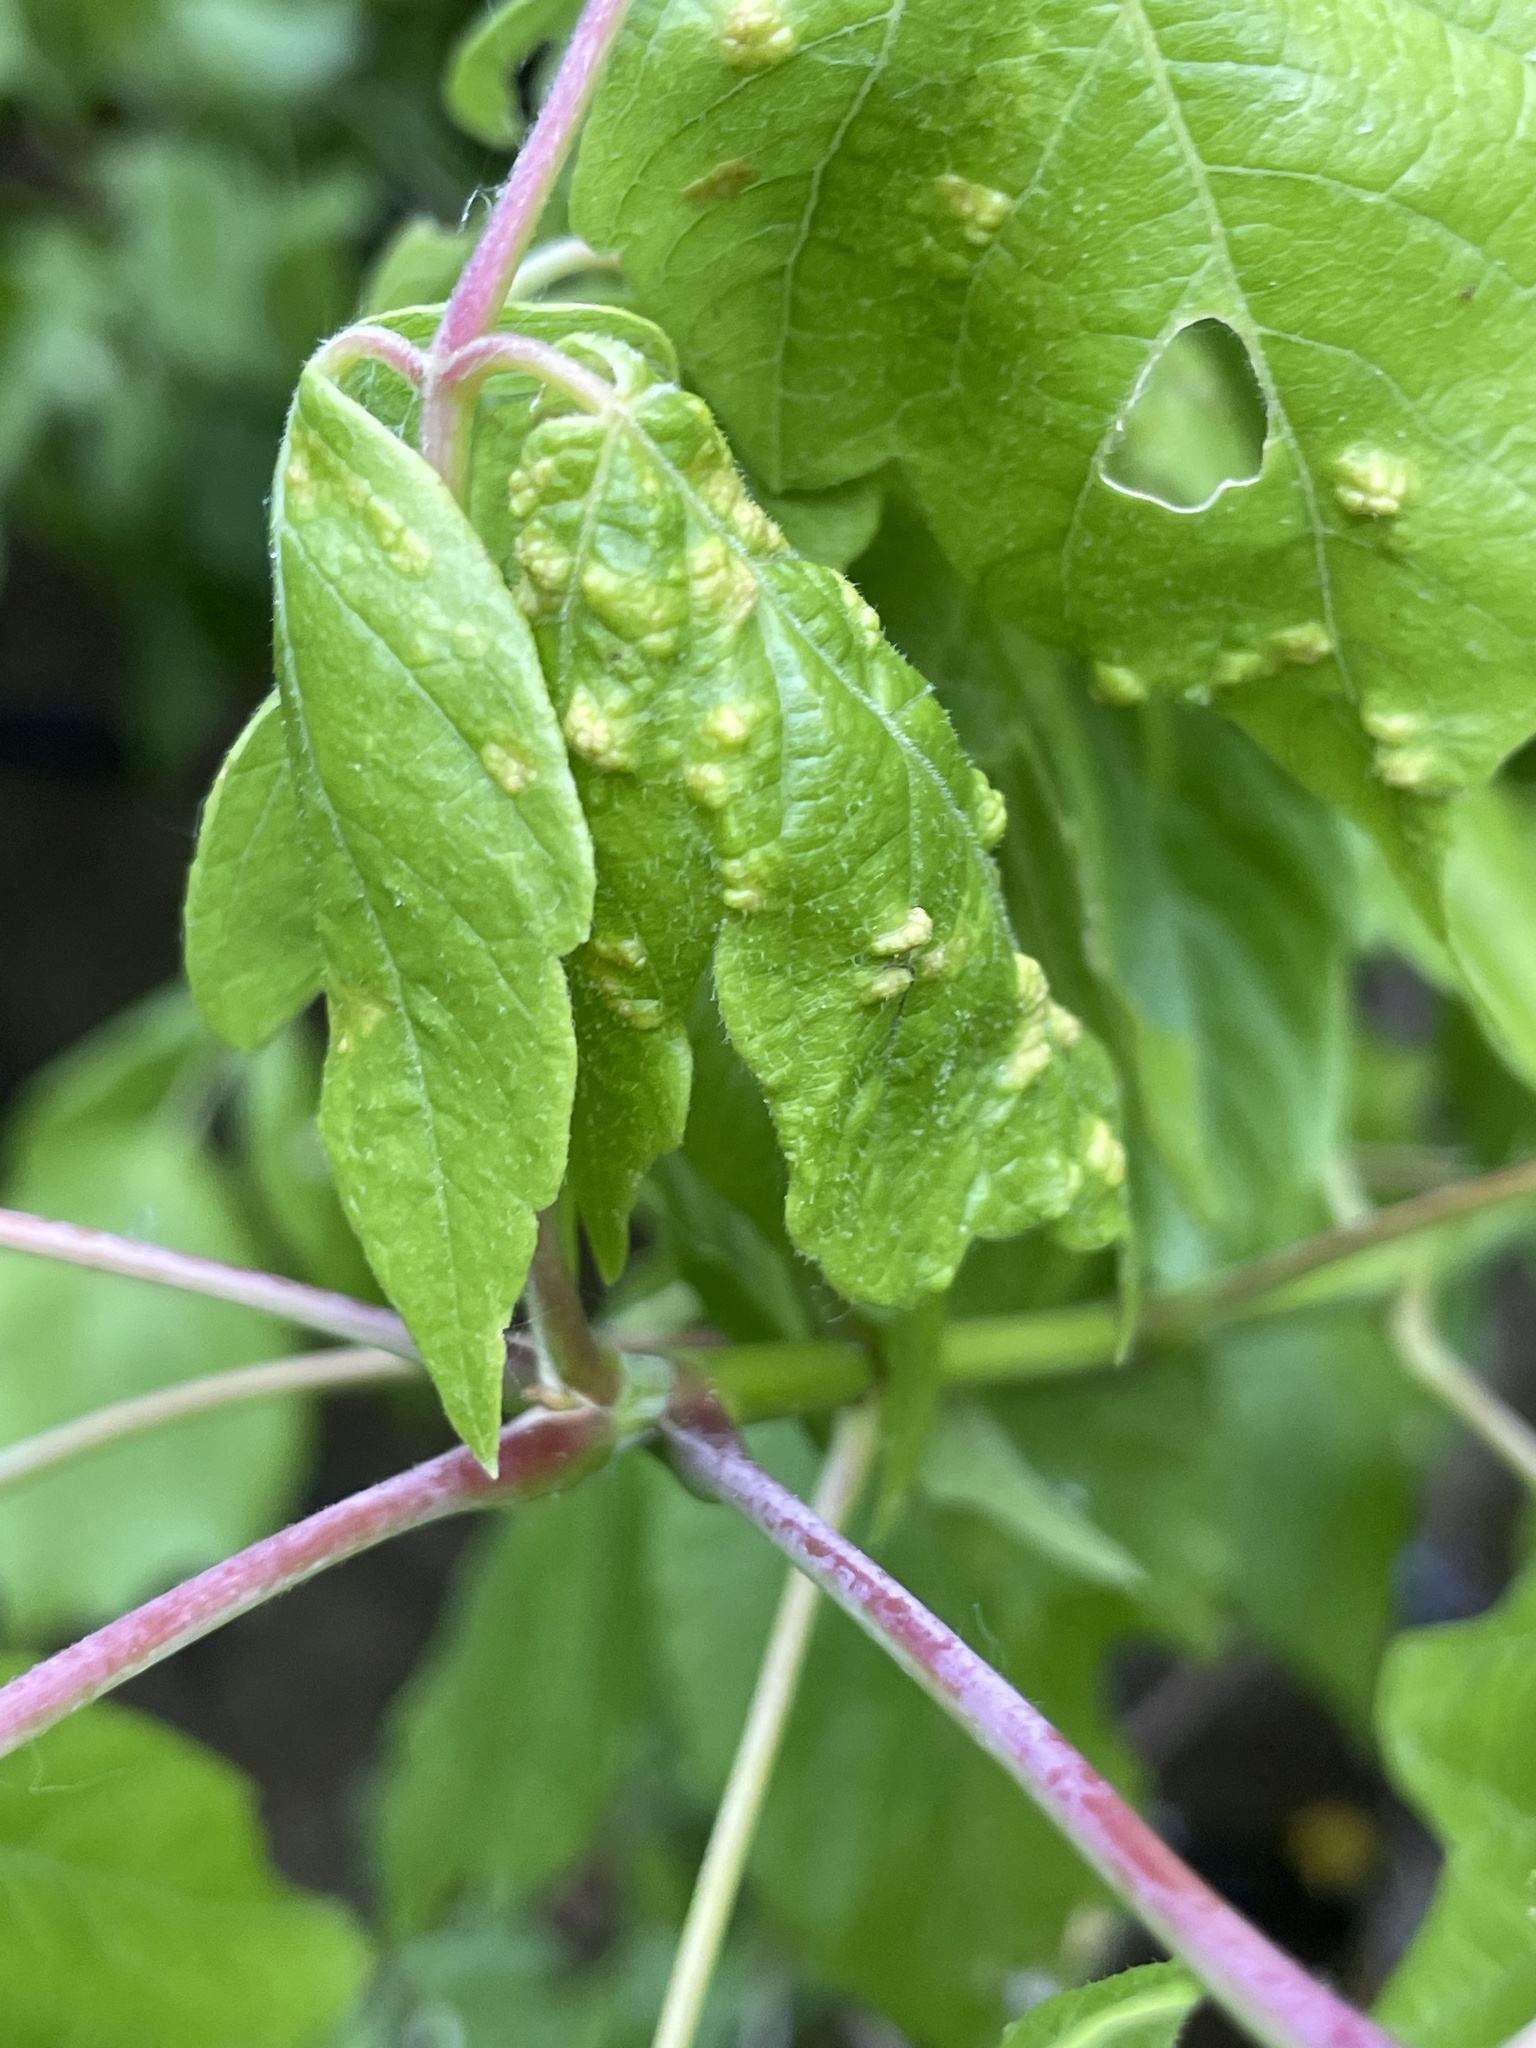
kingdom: Animalia
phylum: Arthropoda
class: Arachnida
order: Trombidiformes
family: Eriophyidae
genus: Aceria
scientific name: Aceria
